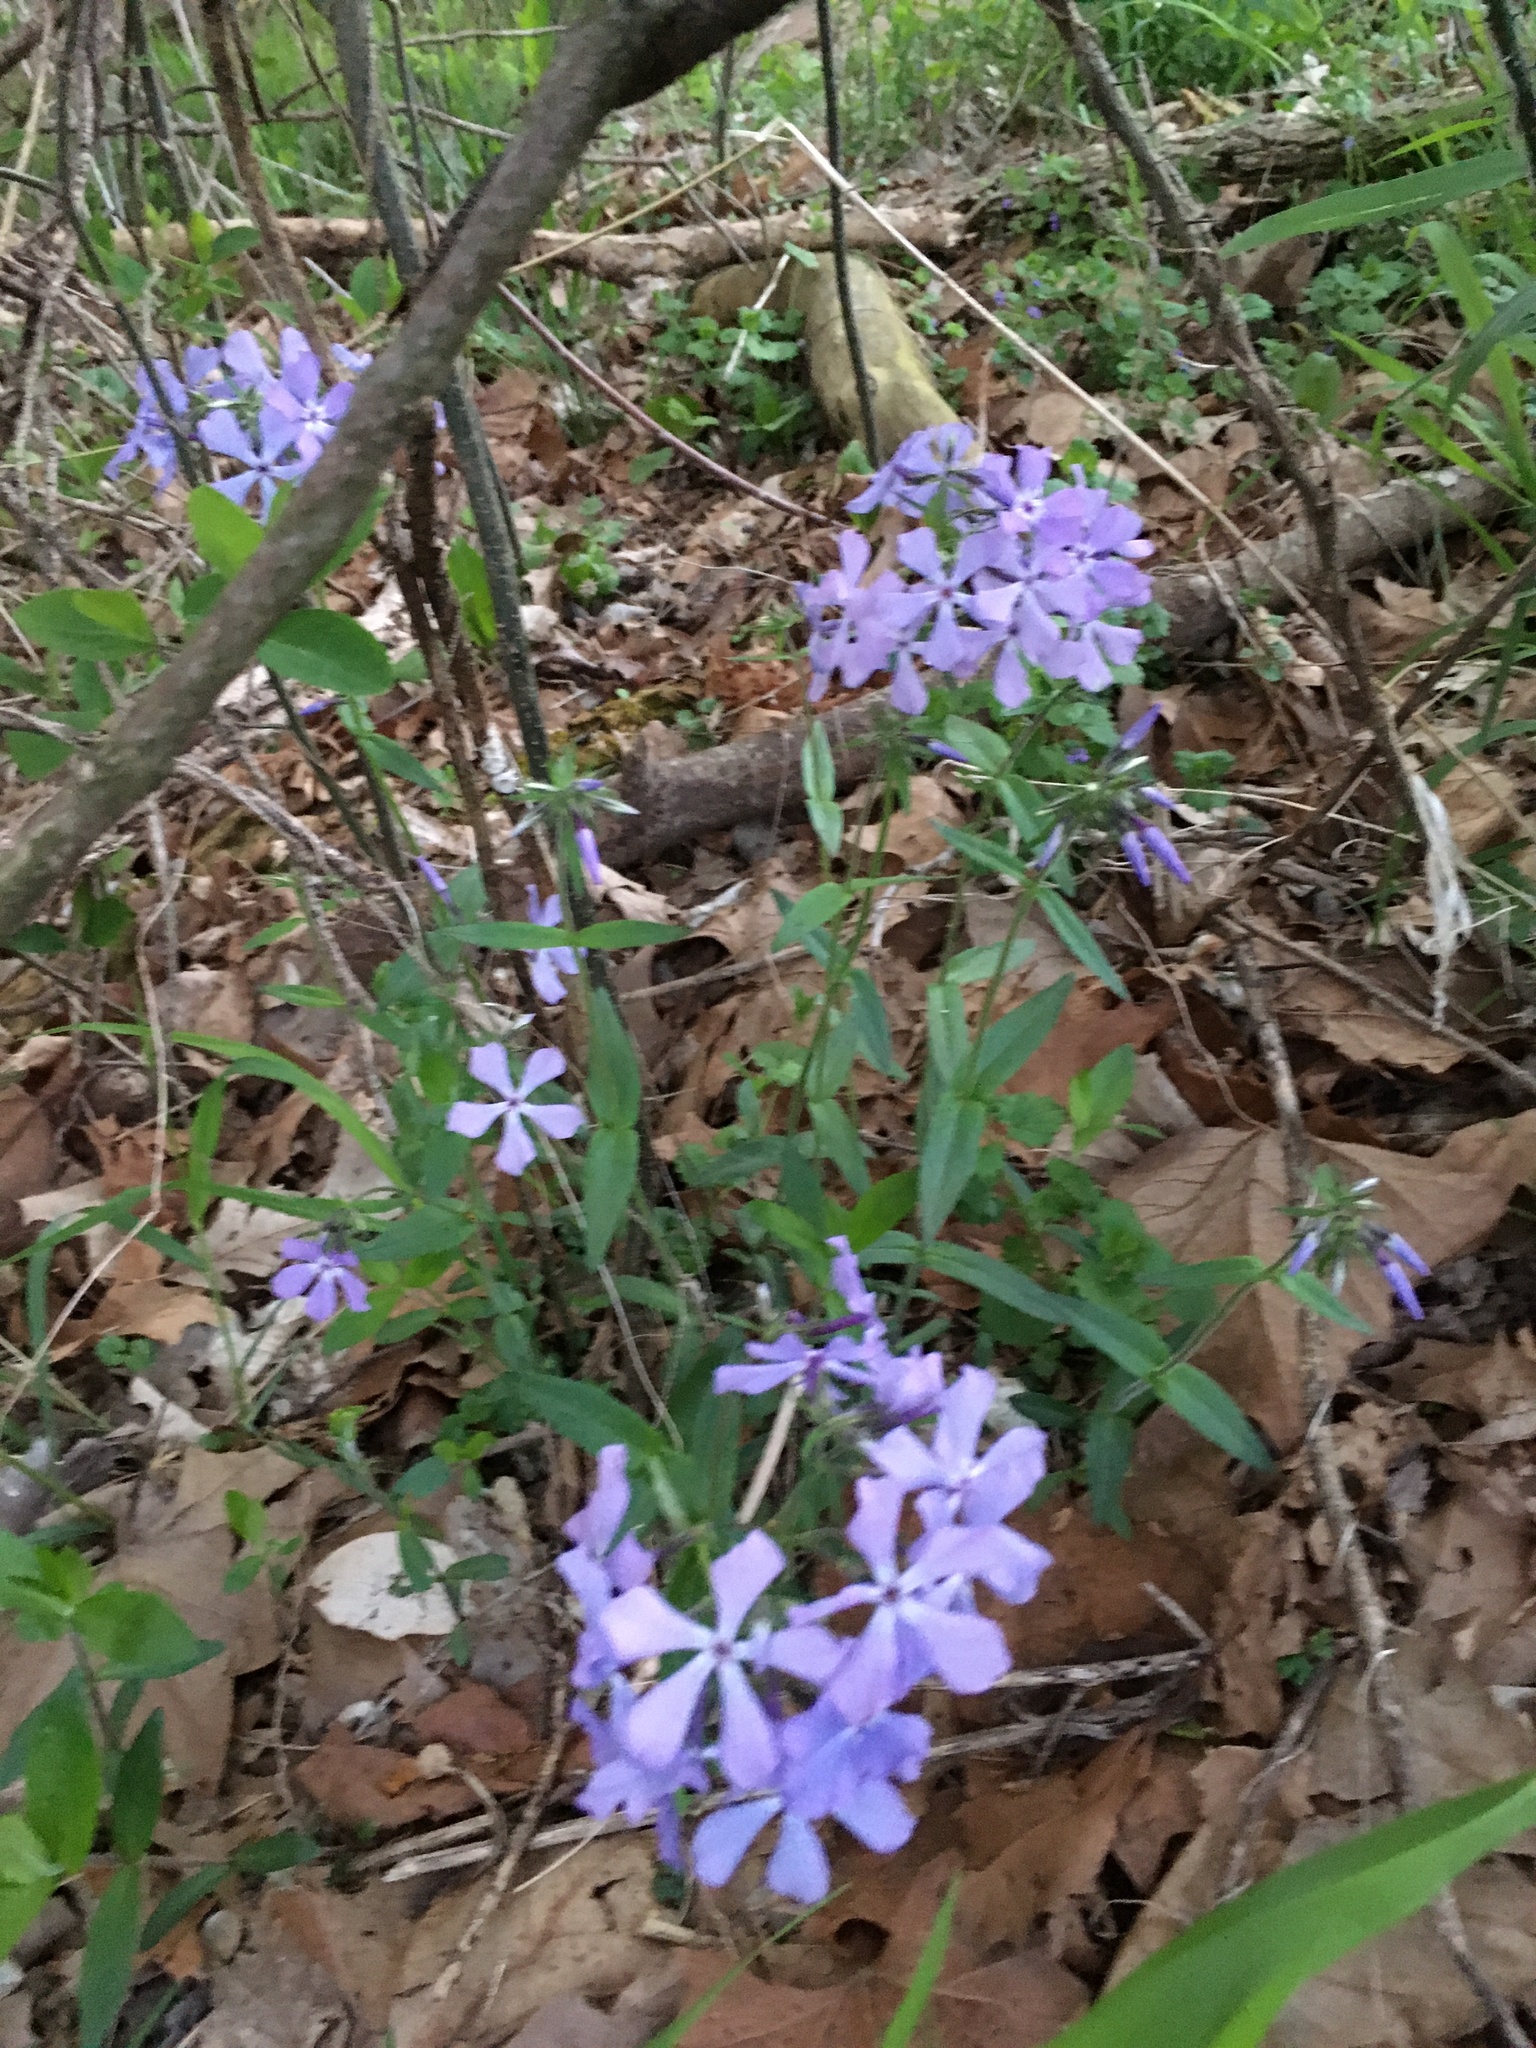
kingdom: Plantae
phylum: Tracheophyta
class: Magnoliopsida
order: Ericales
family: Polemoniaceae
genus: Phlox
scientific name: Phlox divaricata
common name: Blue phlox
